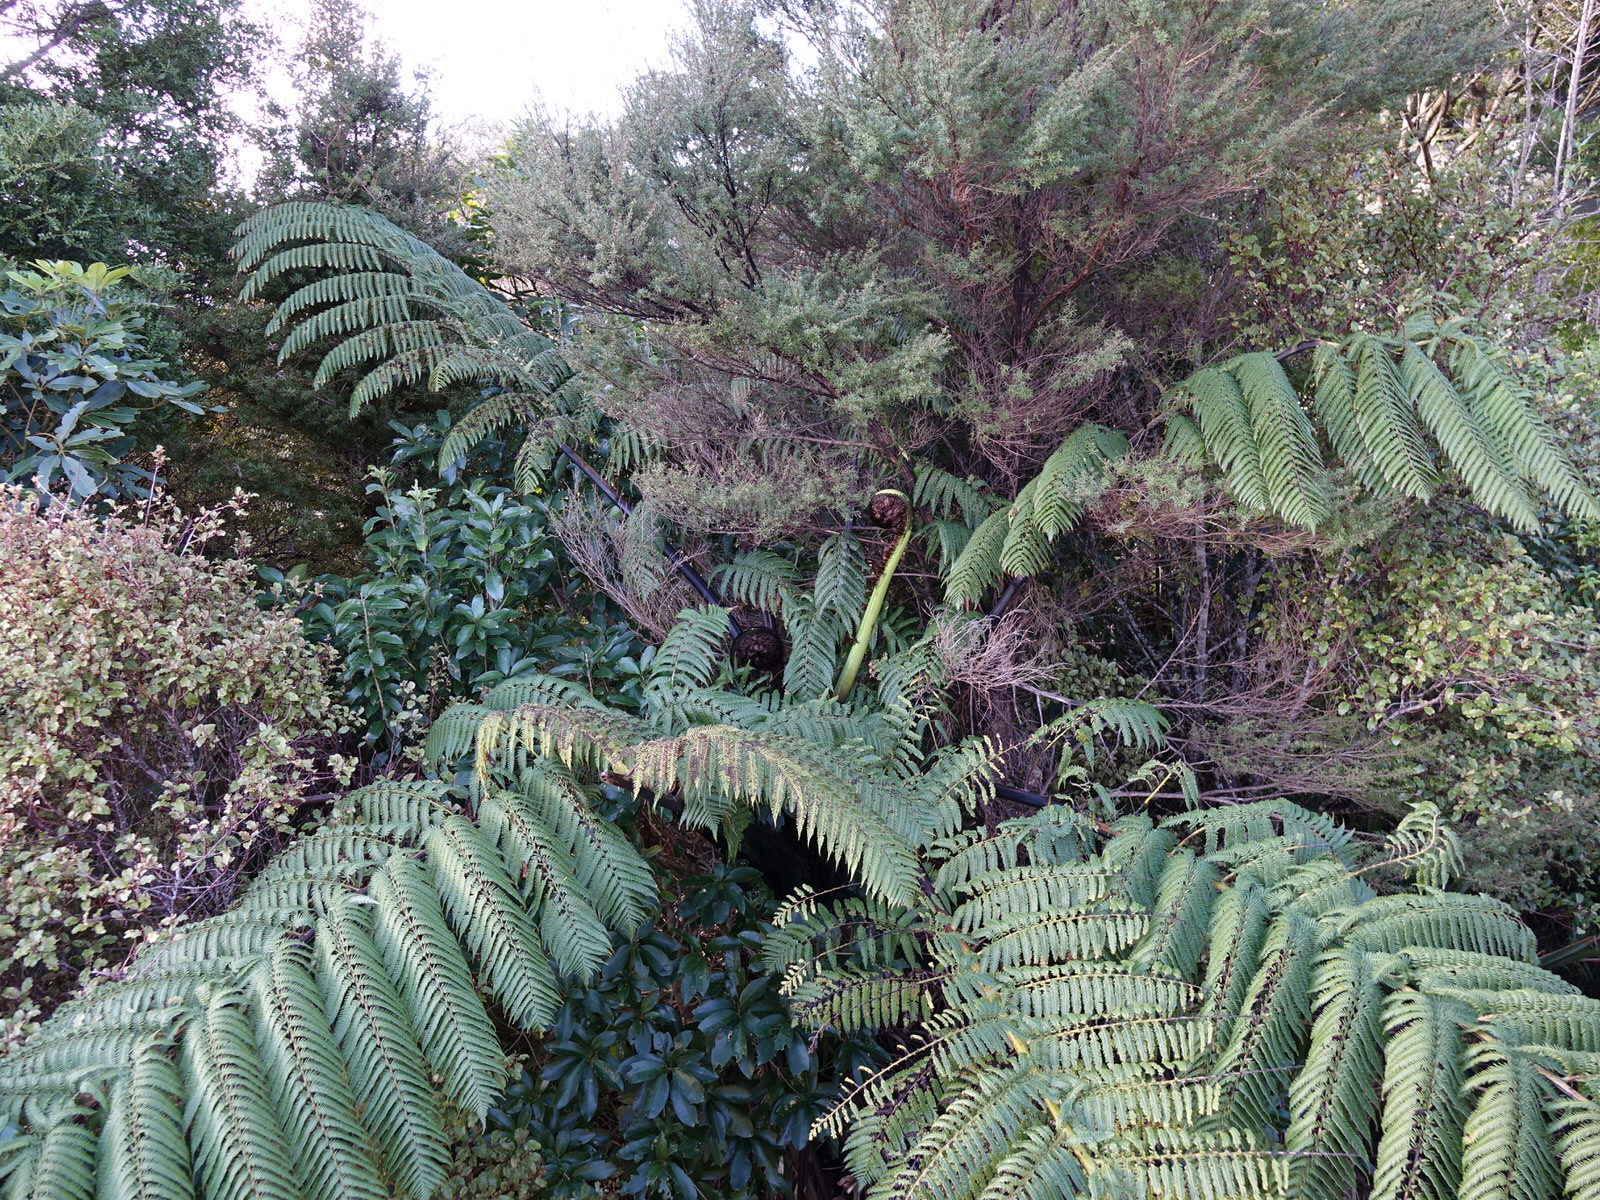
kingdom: Plantae
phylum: Tracheophyta
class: Polypodiopsida
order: Cyatheales
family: Cyatheaceae
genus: Sphaeropteris
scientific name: Sphaeropteris medullaris
